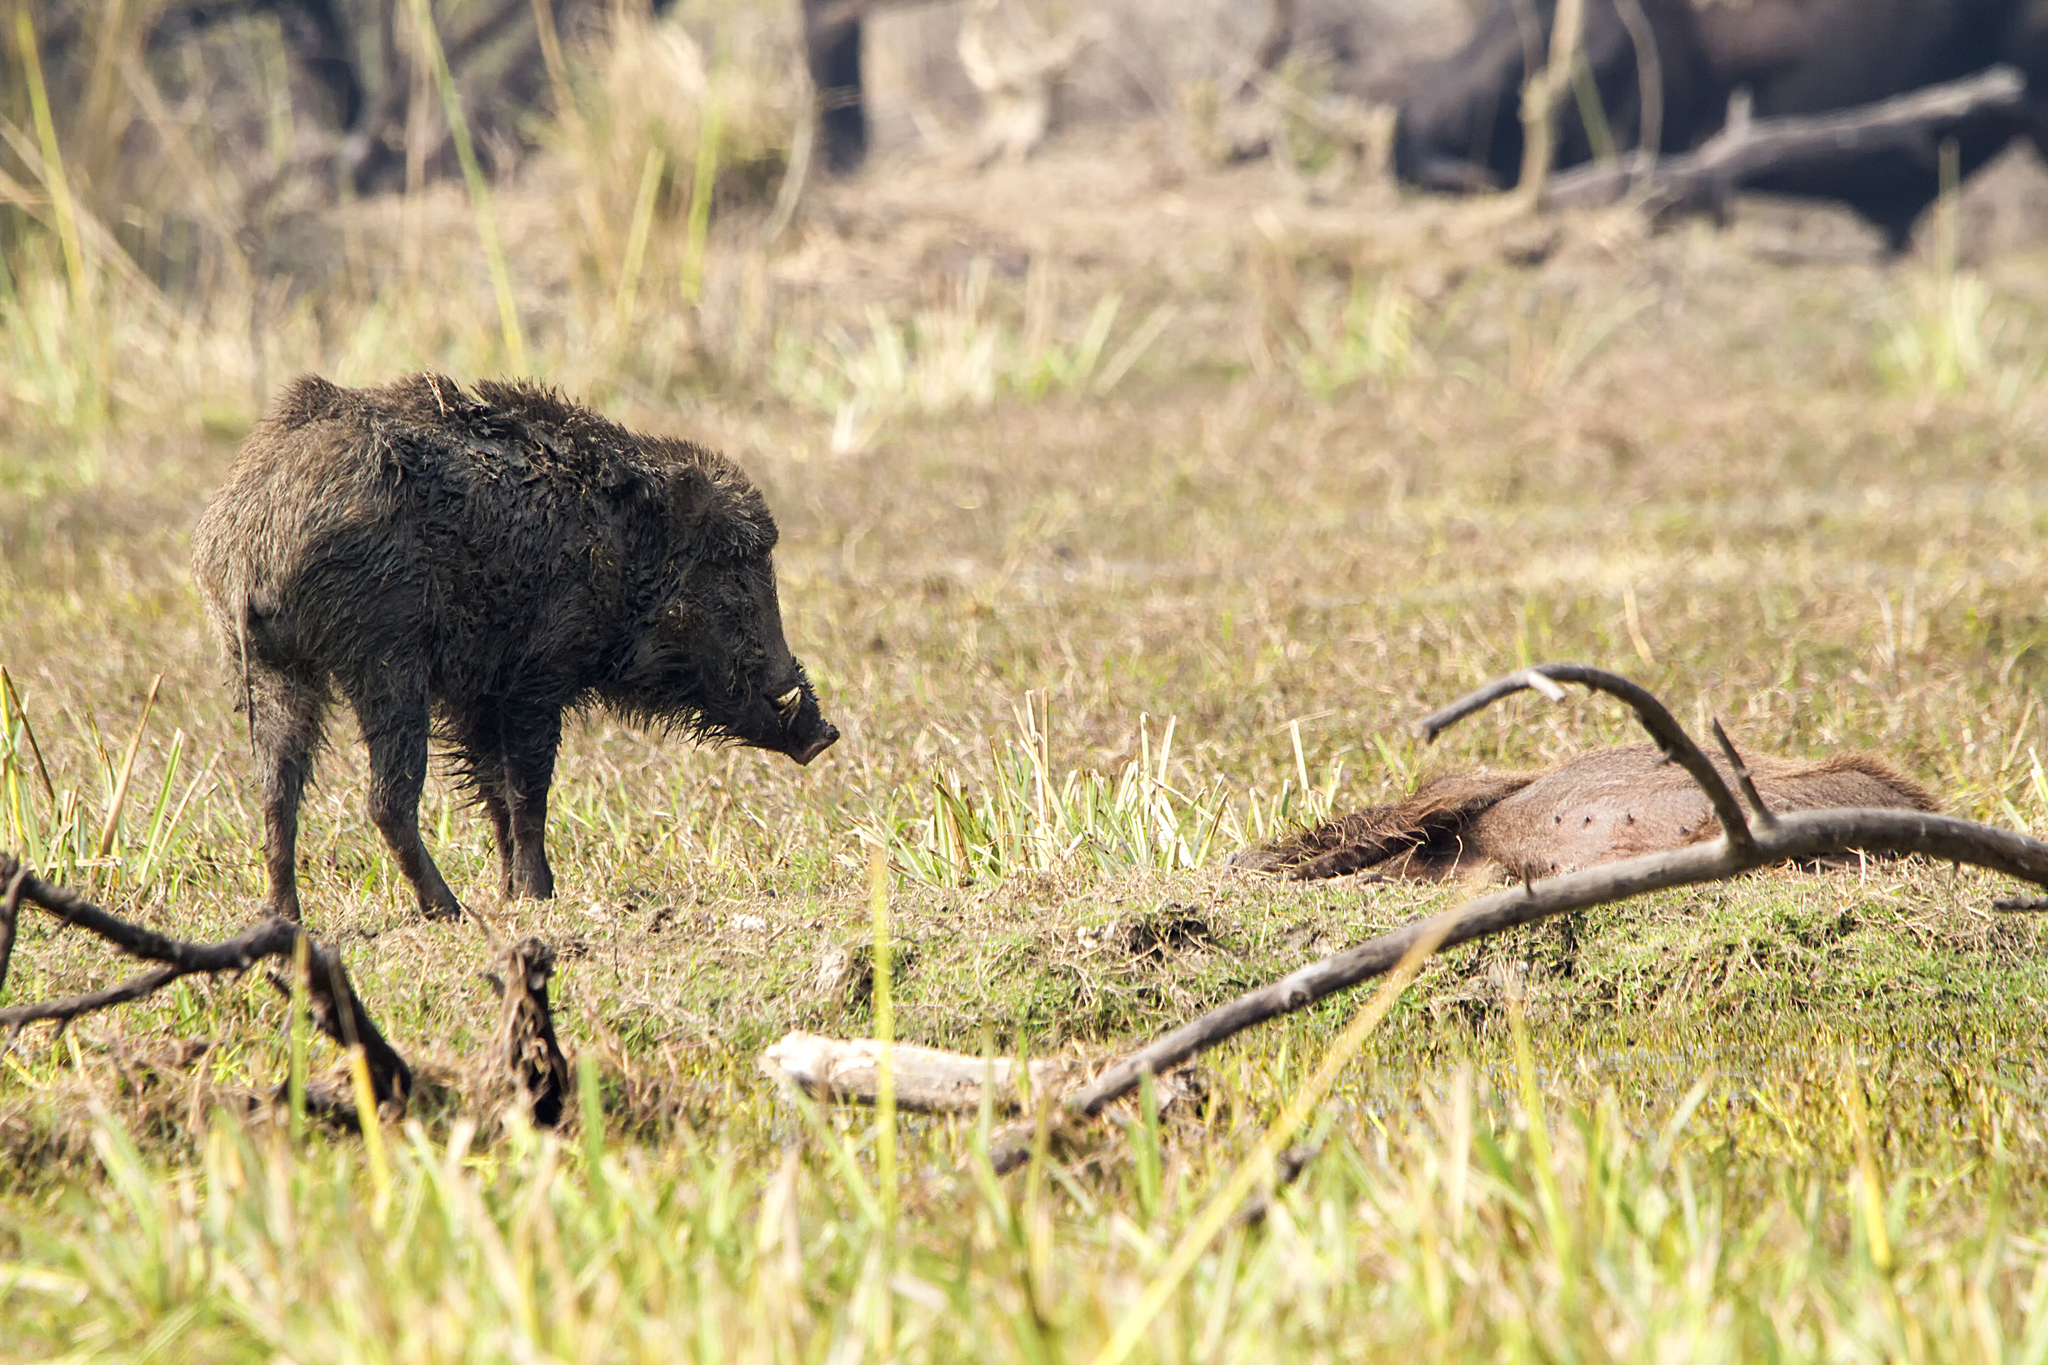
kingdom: Animalia
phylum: Chordata
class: Mammalia
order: Artiodactyla
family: Suidae
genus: Sus
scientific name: Sus scrofa
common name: Wild boar
